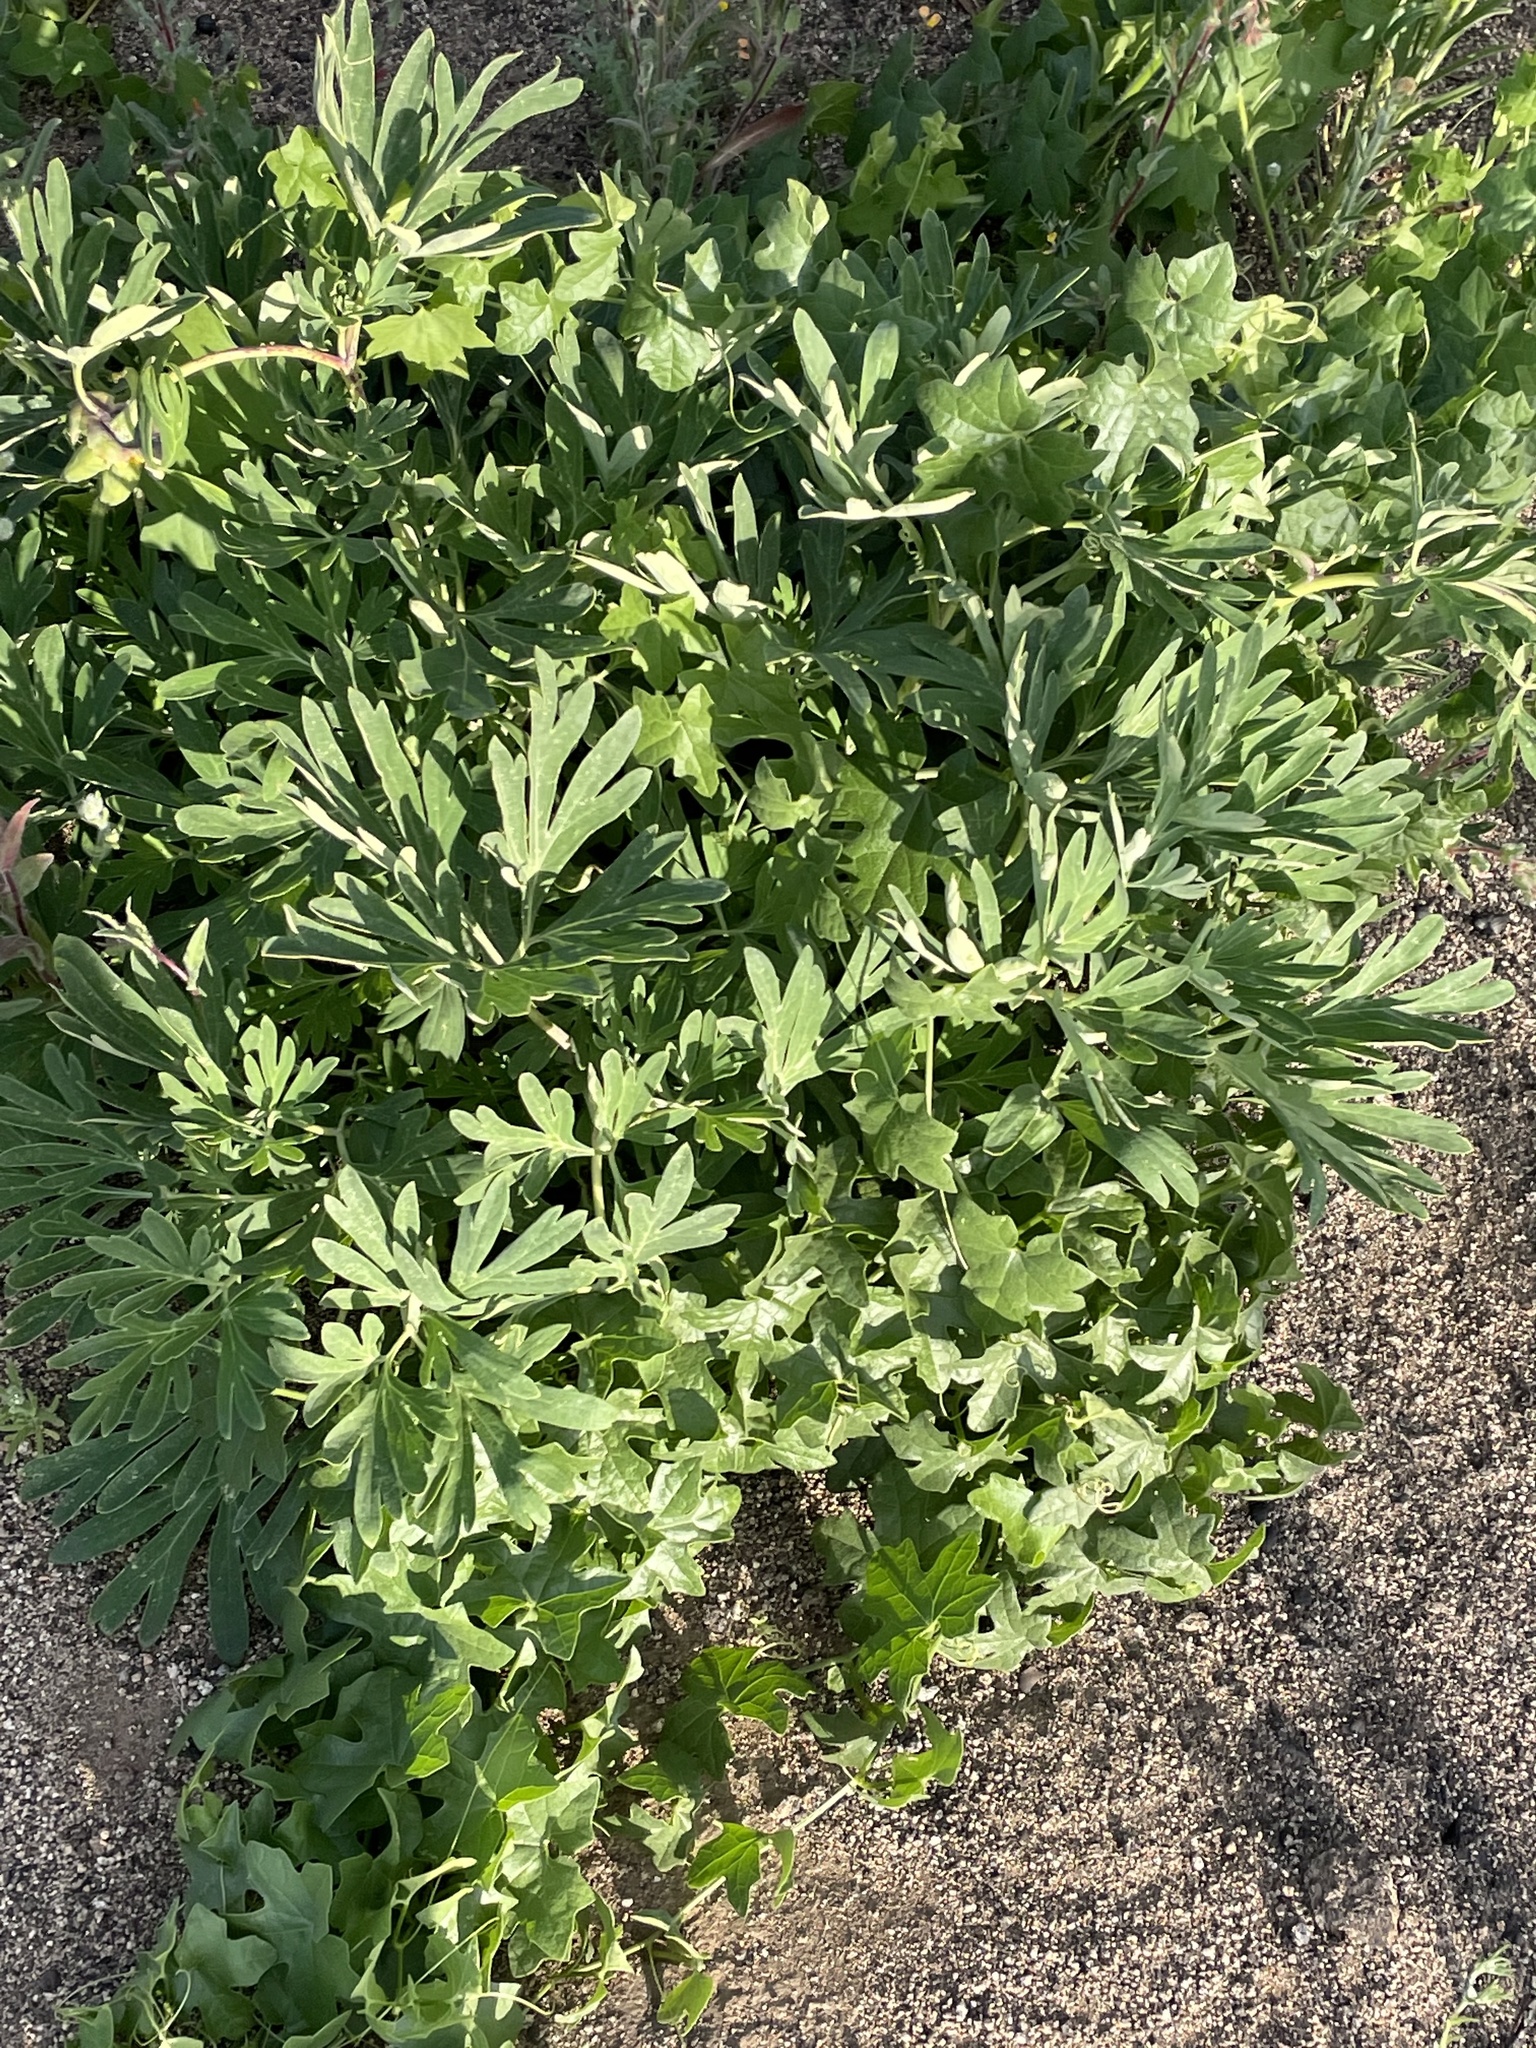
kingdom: Plantae
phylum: Tracheophyta
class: Magnoliopsida
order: Saxifragales
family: Paeoniaceae
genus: Paeonia
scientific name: Paeonia californica
